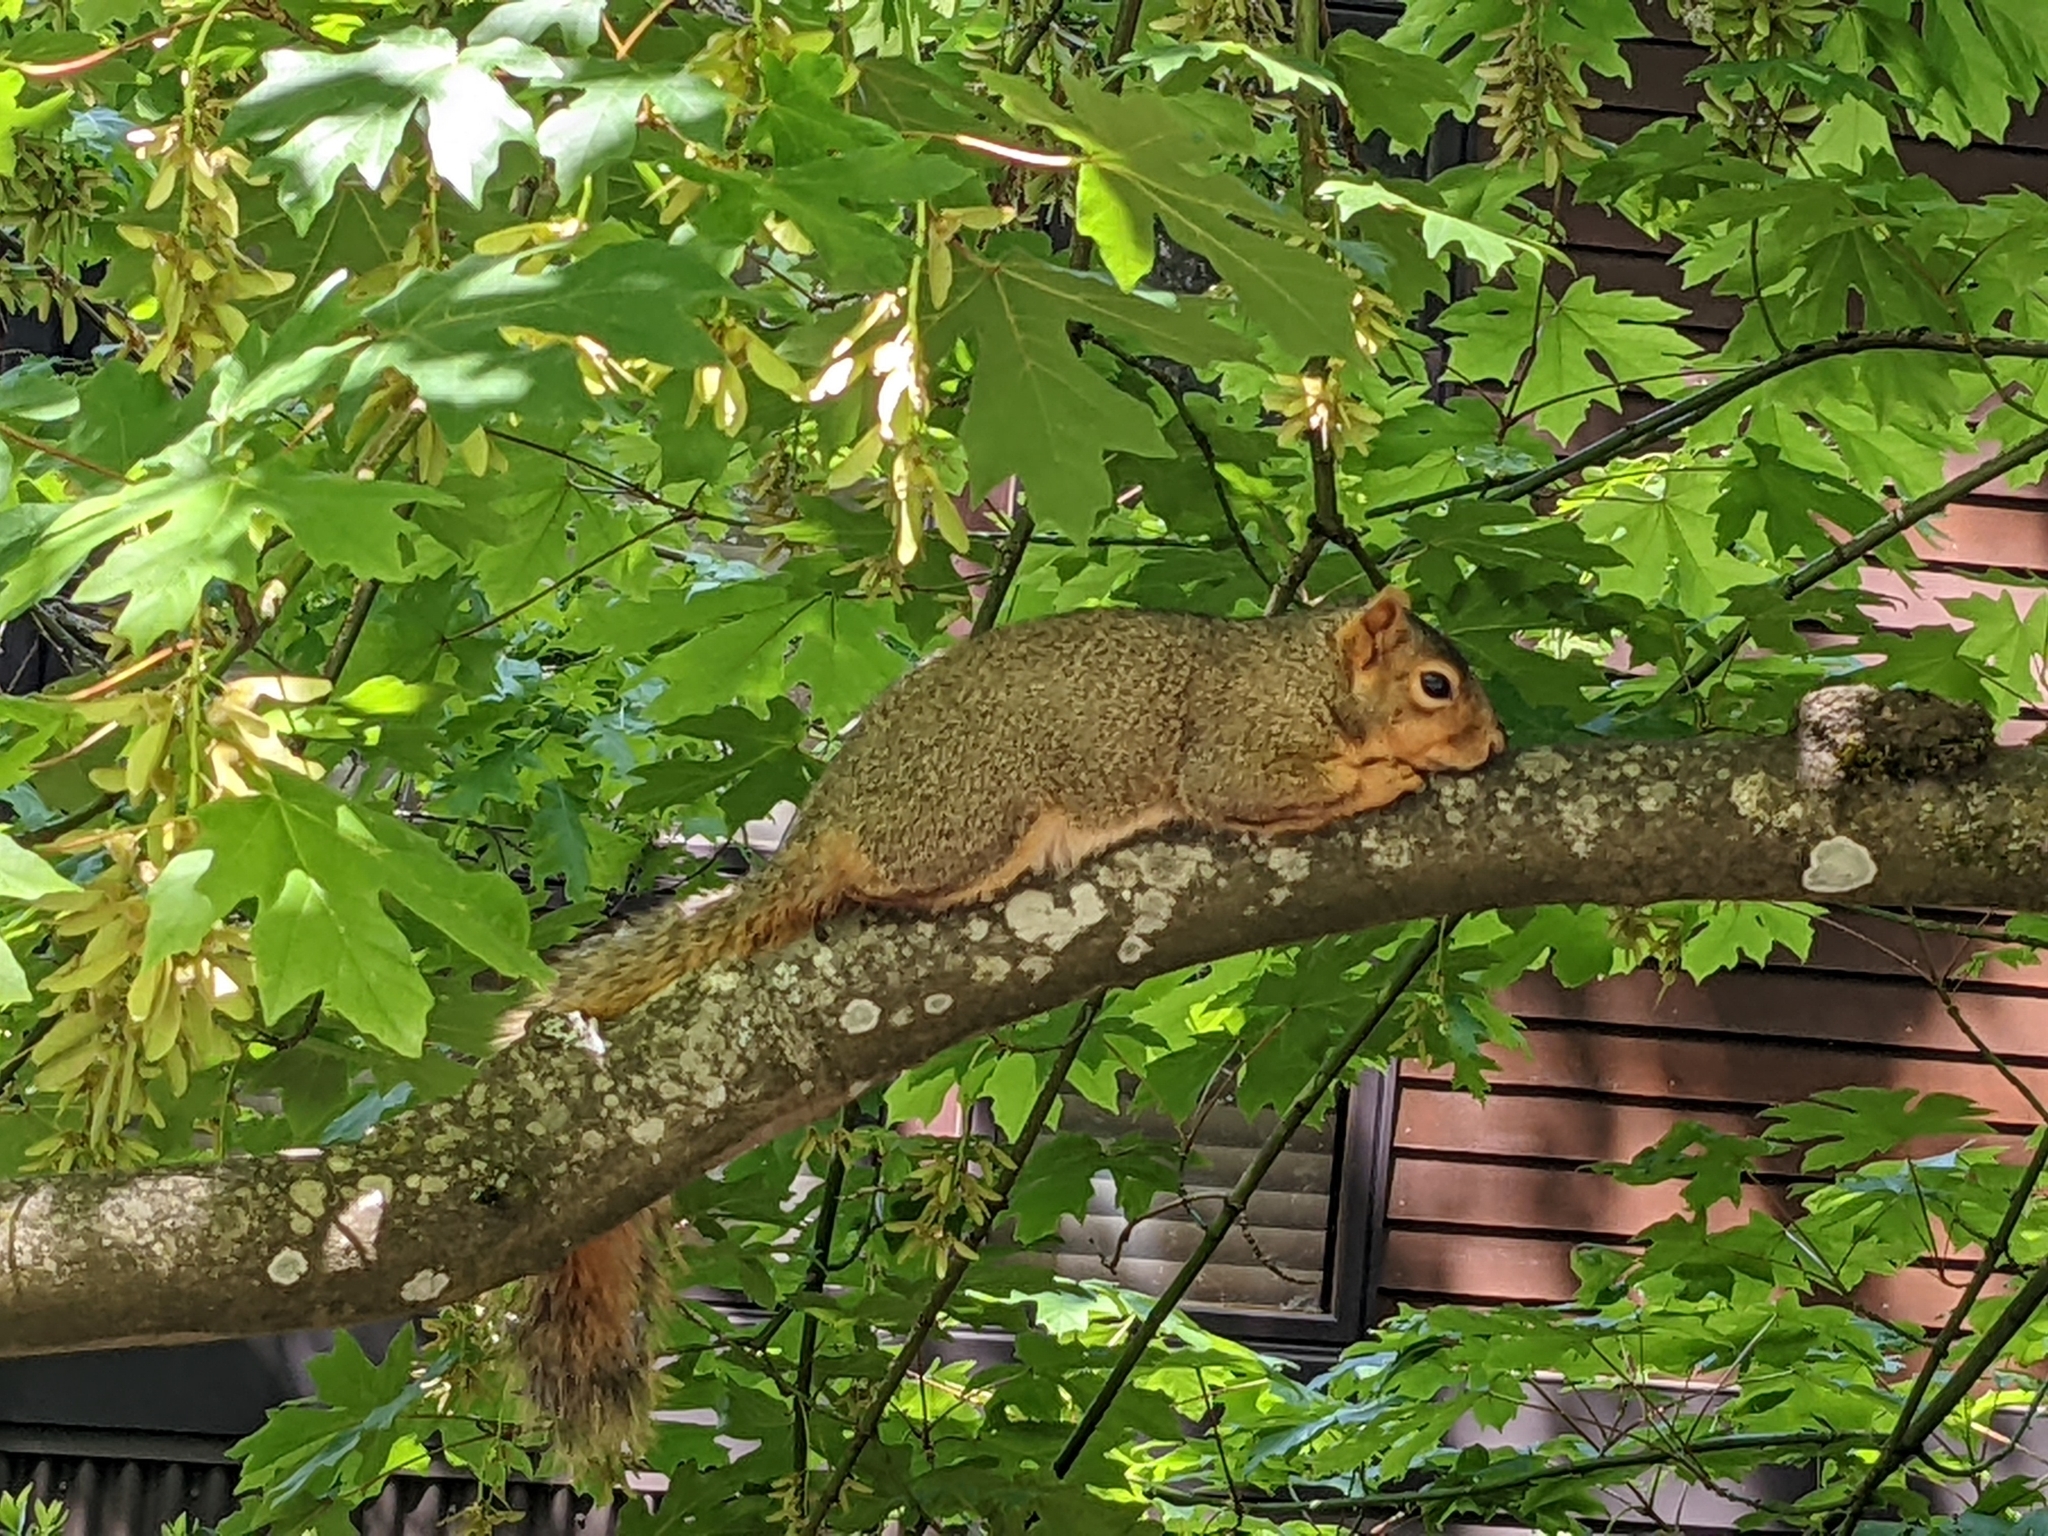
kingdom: Animalia
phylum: Chordata
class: Mammalia
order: Rodentia
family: Sciuridae
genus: Sciurus
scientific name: Sciurus niger
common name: Fox squirrel
